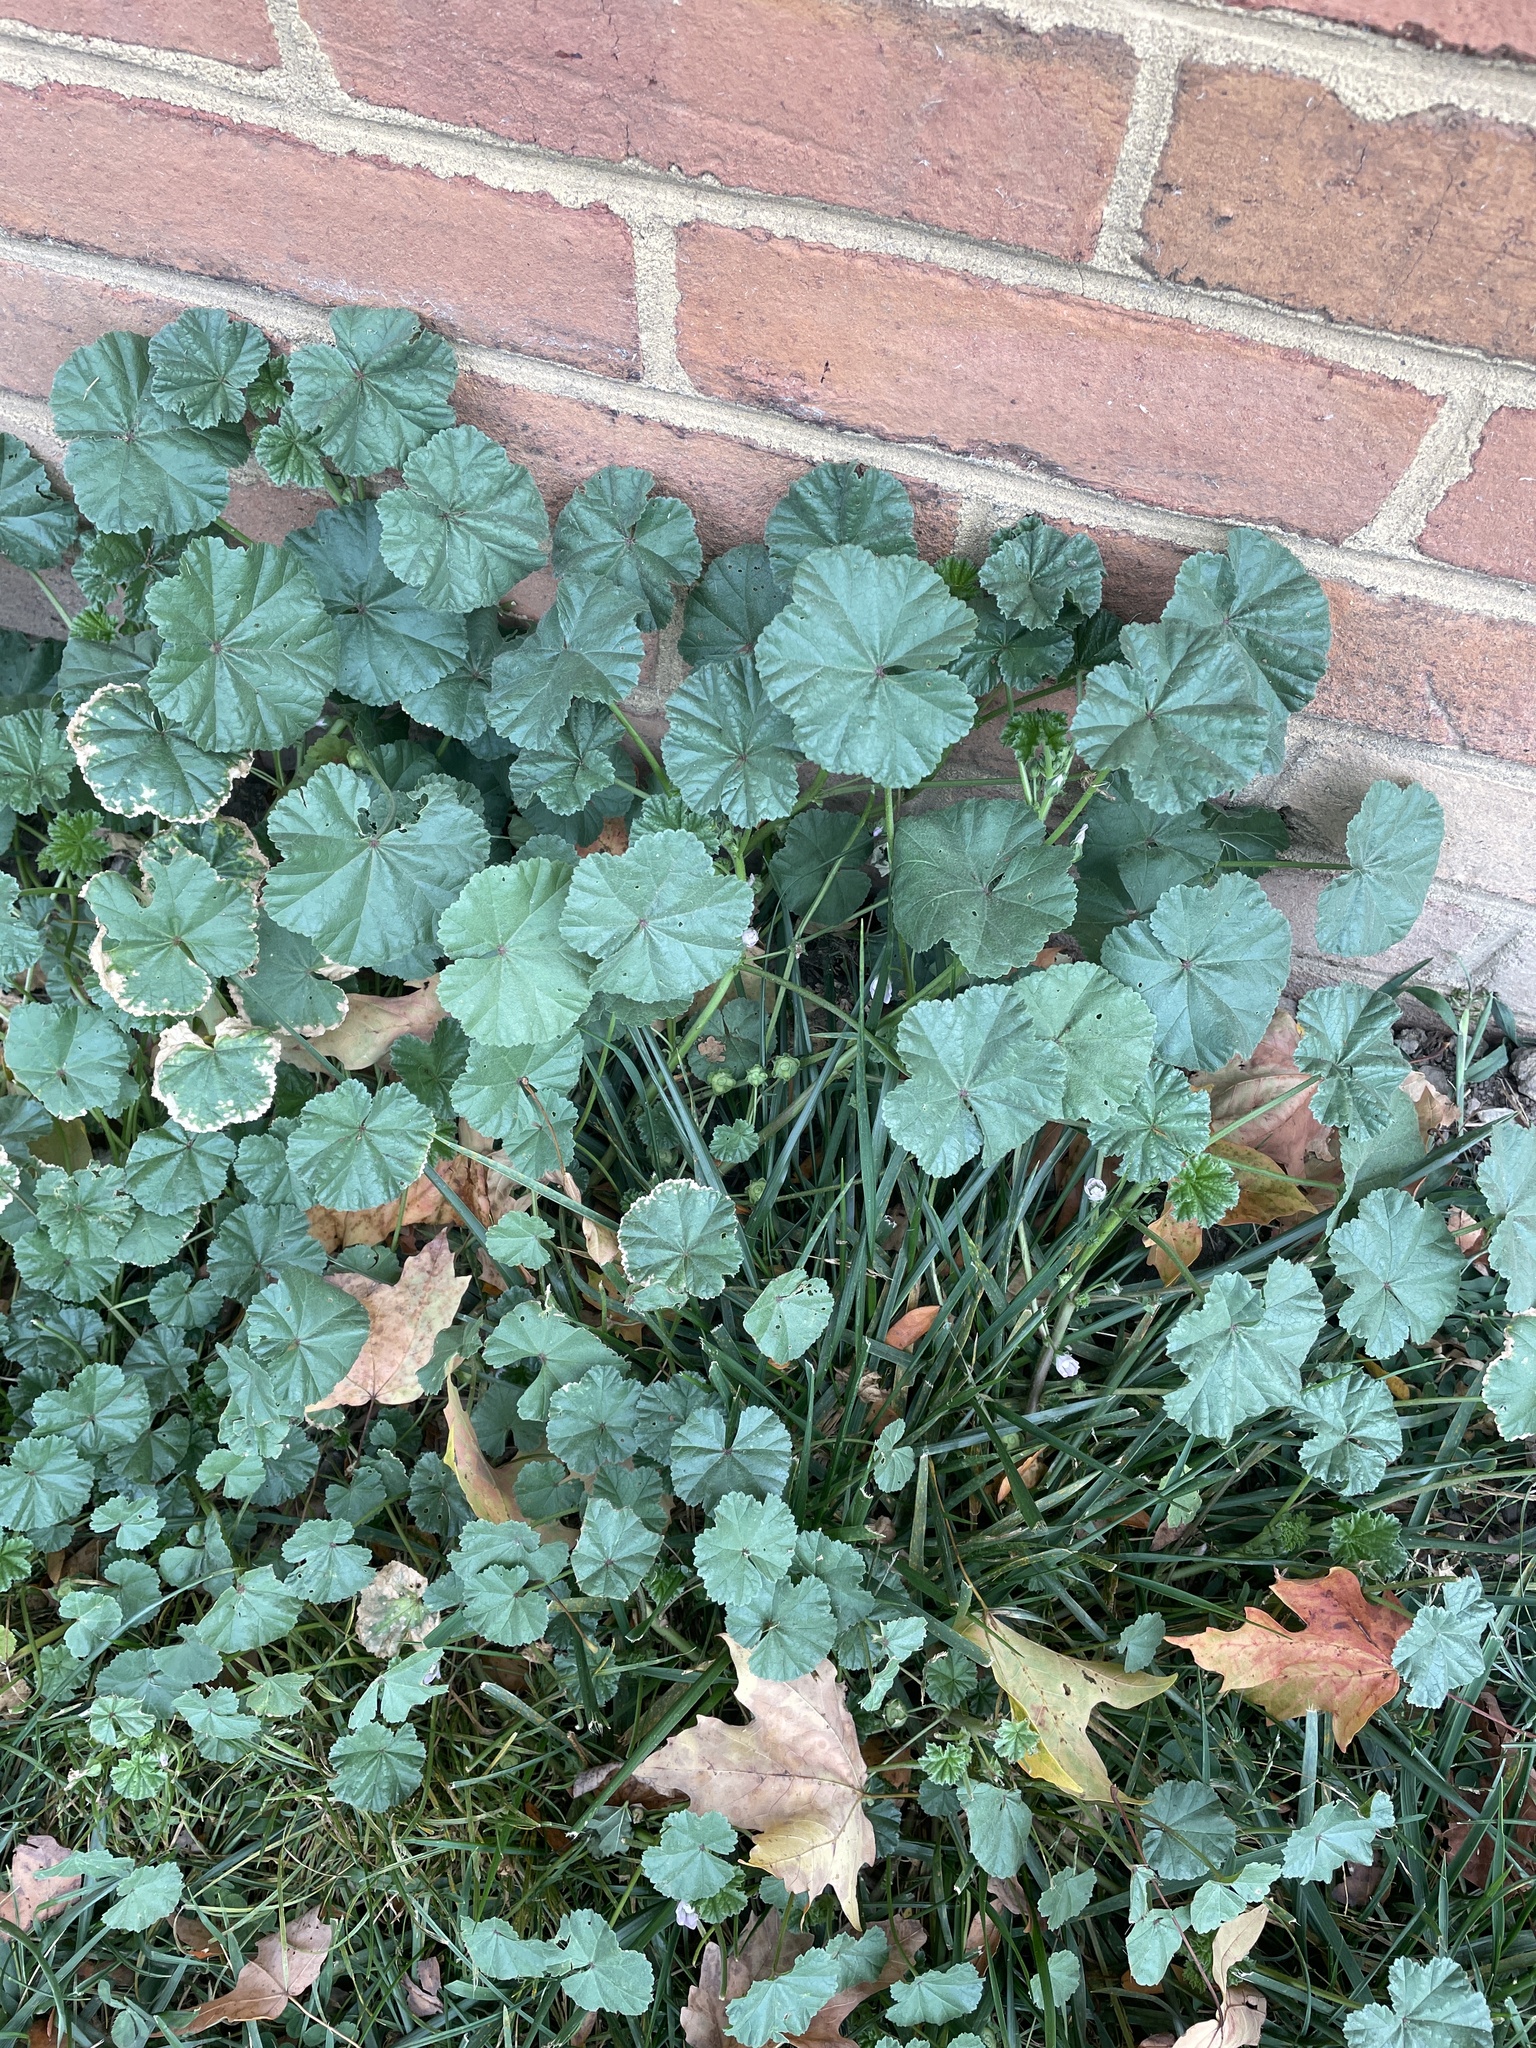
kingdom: Plantae
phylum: Tracheophyta
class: Magnoliopsida
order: Malvales
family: Malvaceae
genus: Malva
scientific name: Malva neglecta
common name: Common mallow
